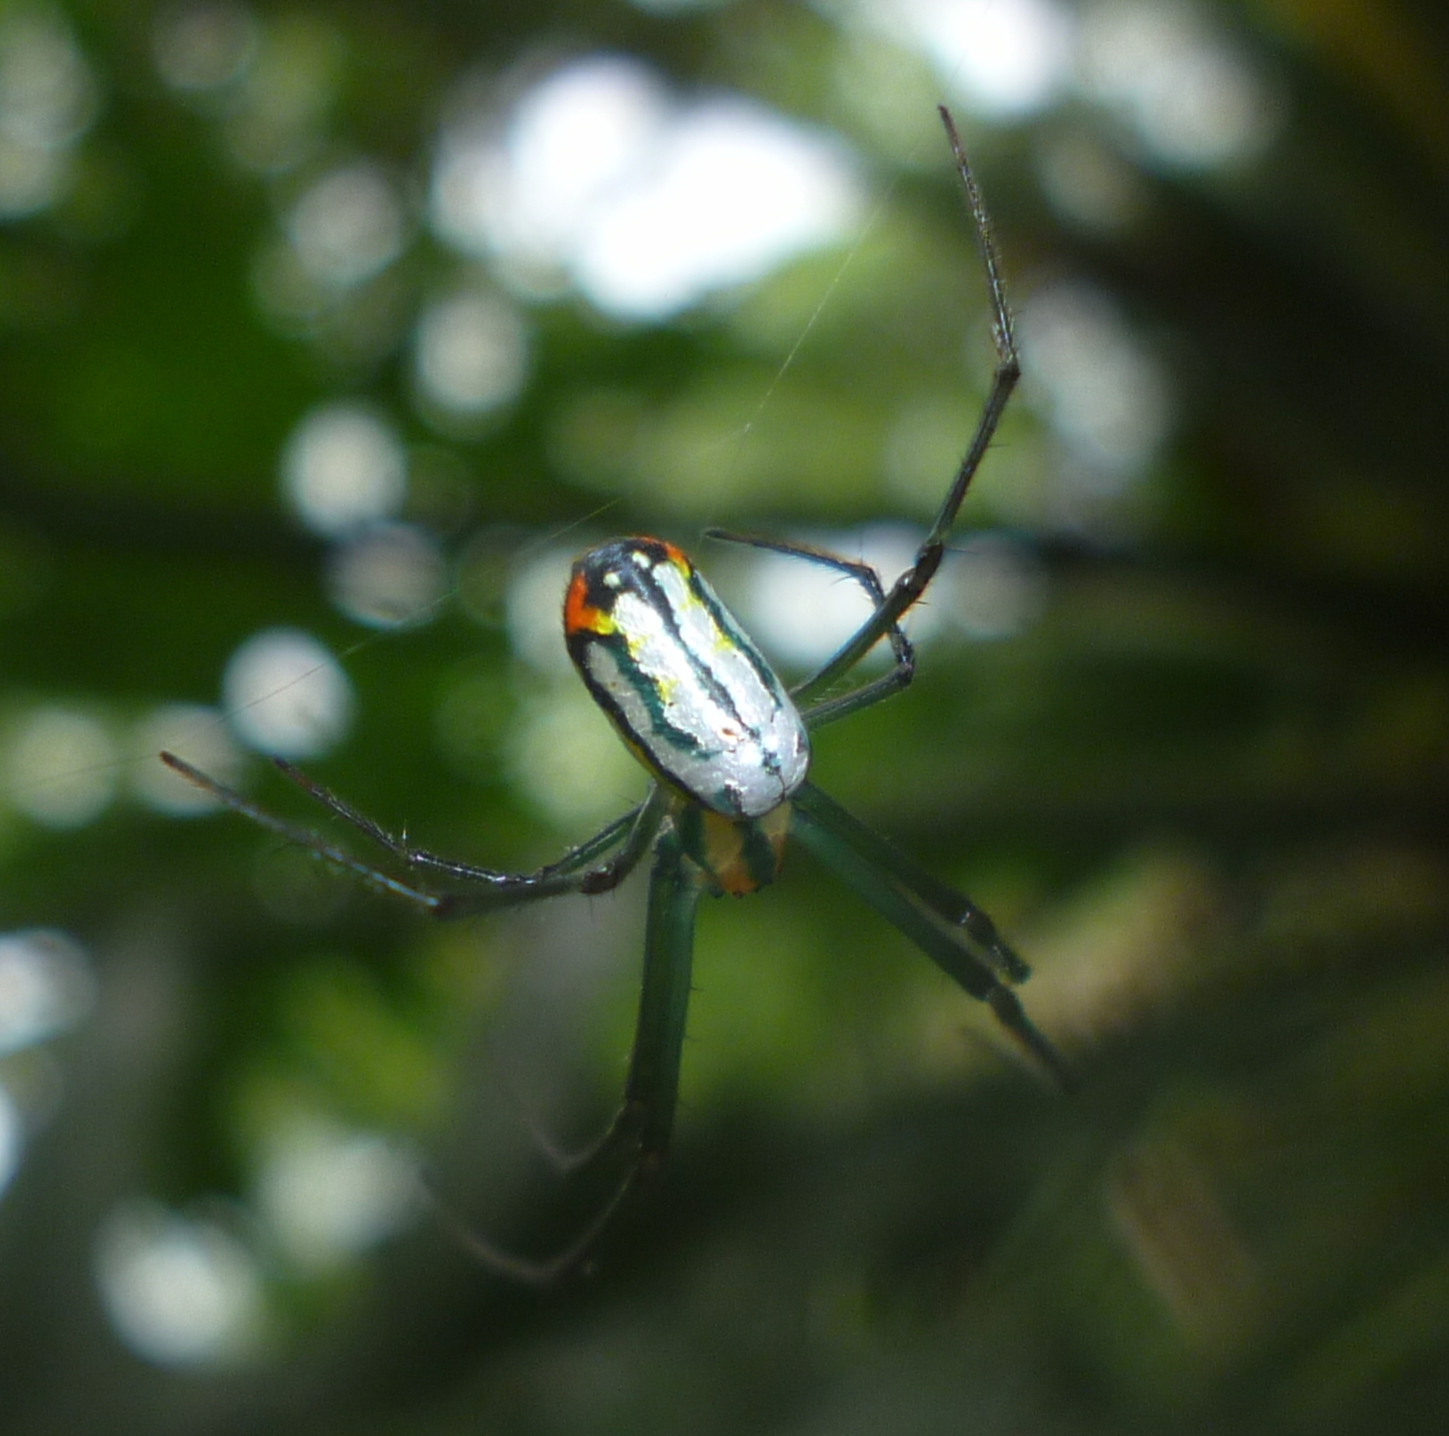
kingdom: Animalia
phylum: Arthropoda
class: Arachnida
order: Araneae
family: Tetragnathidae
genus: Leucauge
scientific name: Leucauge argyrobapta
